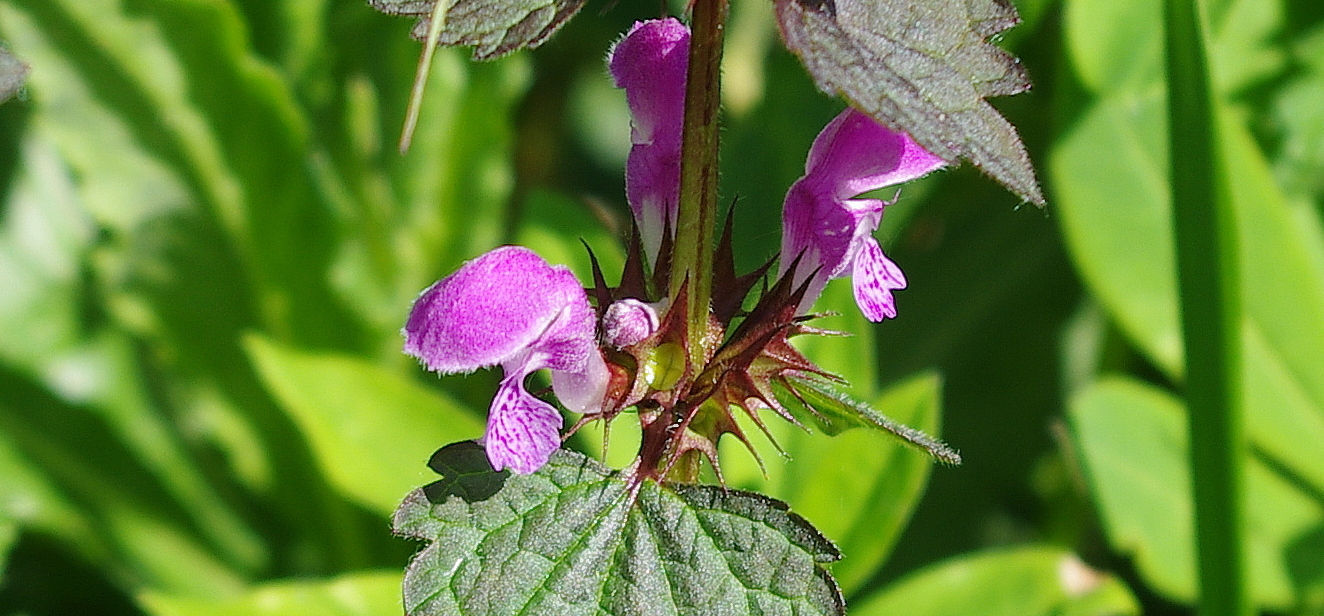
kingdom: Plantae
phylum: Tracheophyta
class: Magnoliopsida
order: Lamiales
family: Lamiaceae
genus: Lamium
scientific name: Lamium maculatum
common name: Spotted dead-nettle
